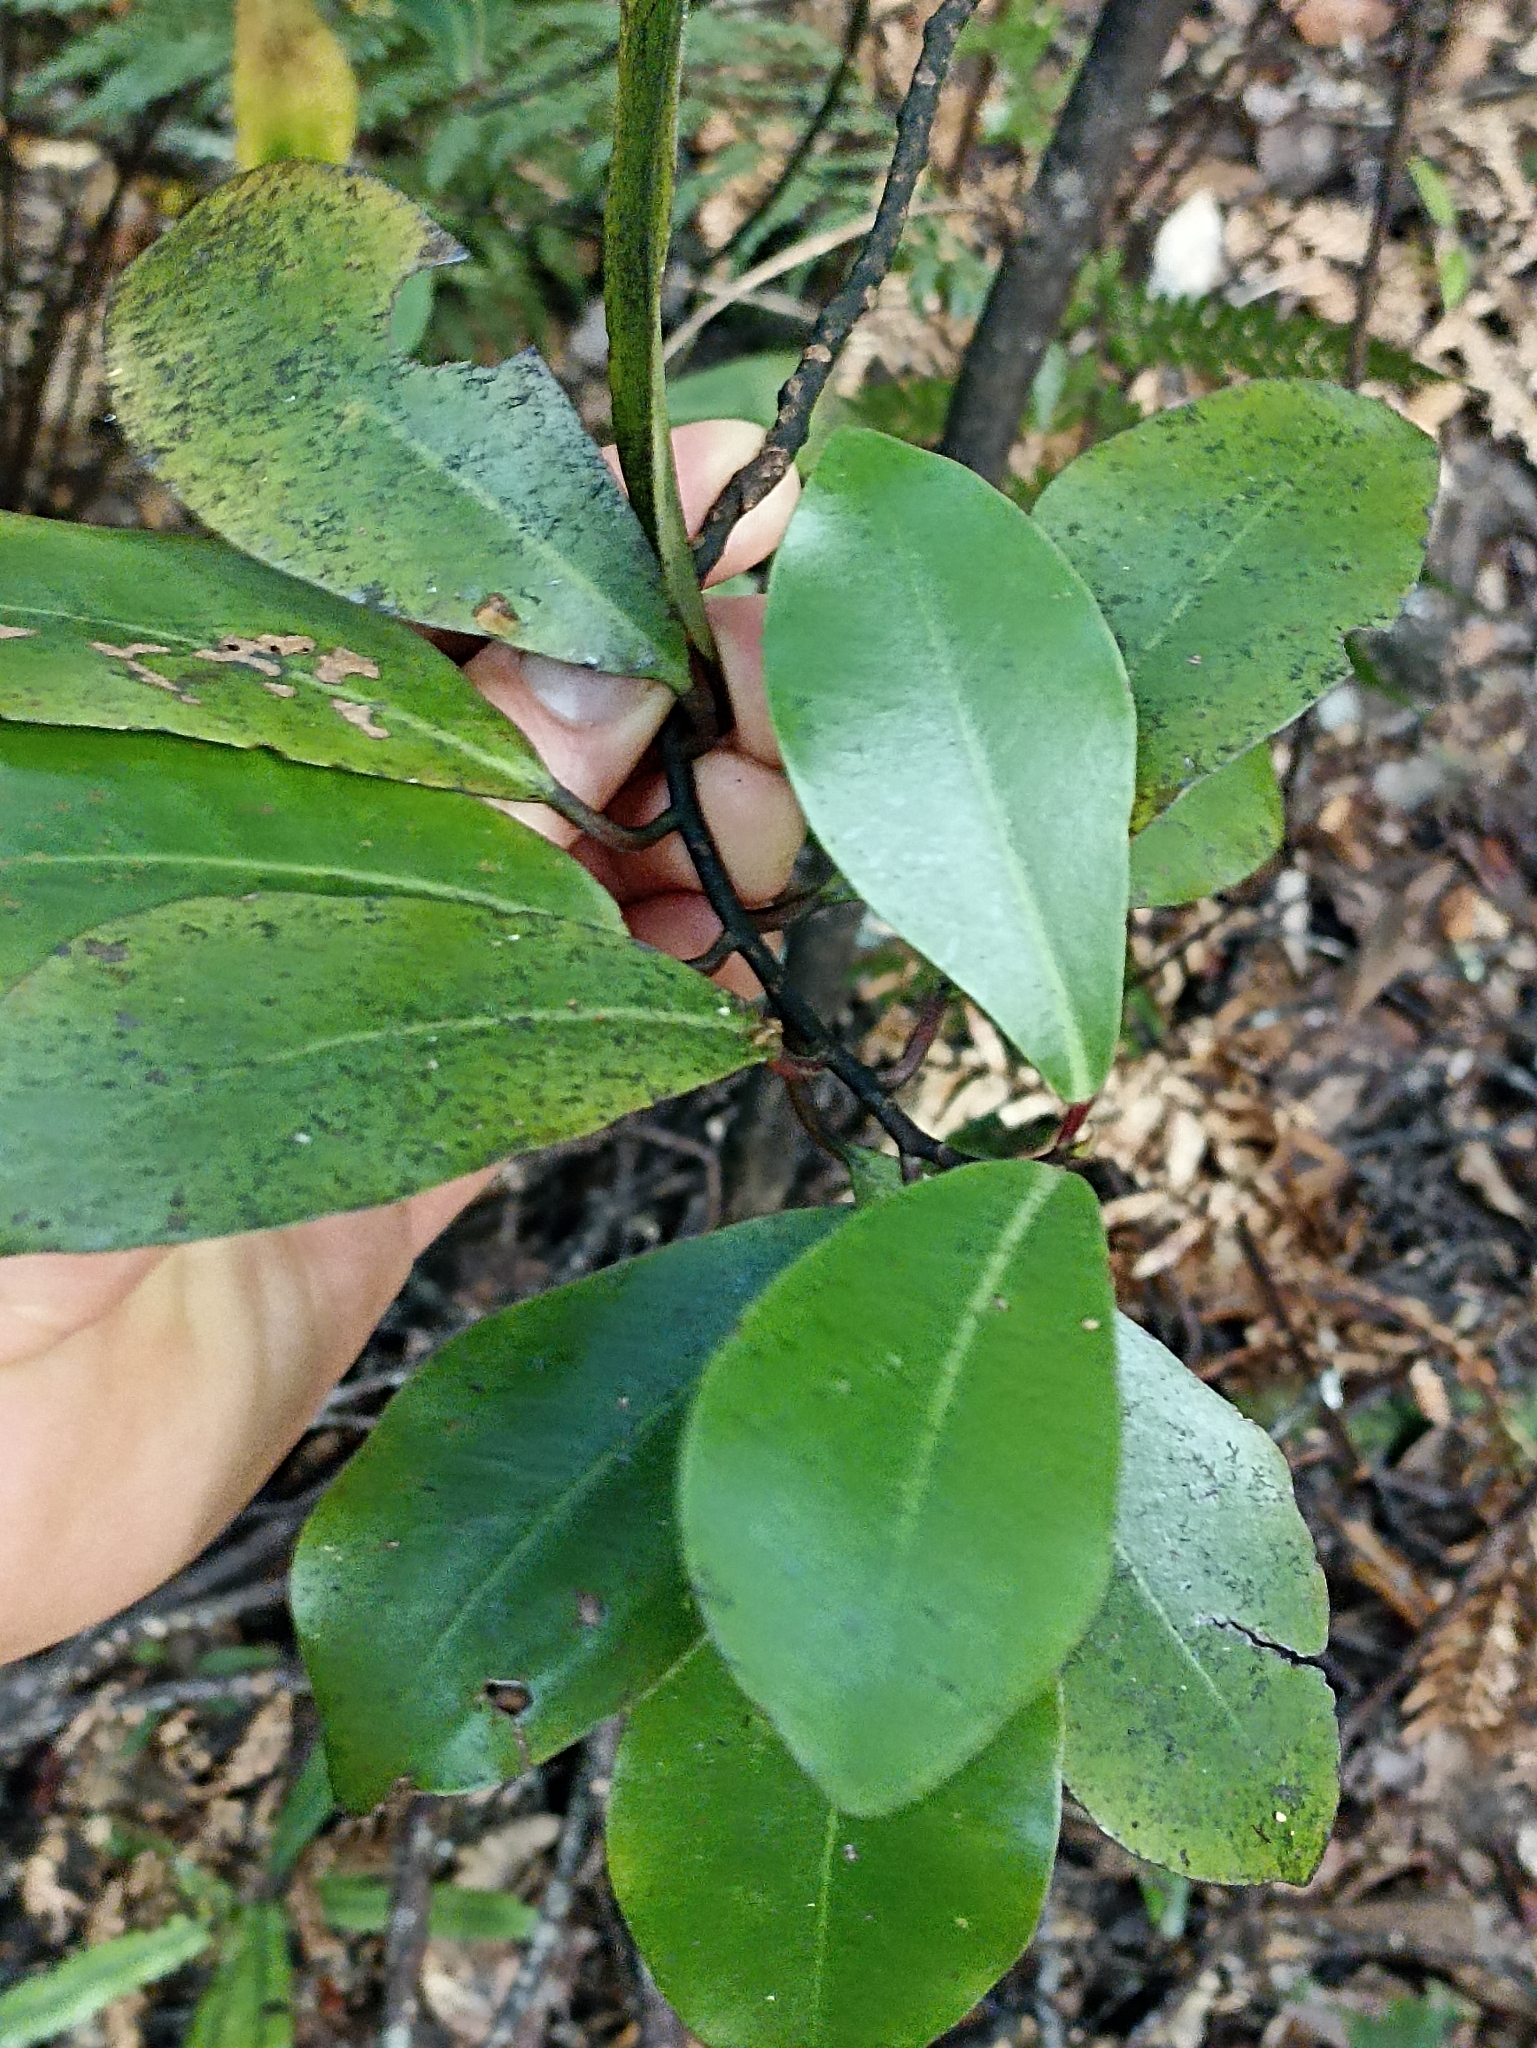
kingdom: Plantae
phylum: Tracheophyta
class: Magnoliopsida
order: Canellales
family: Winteraceae
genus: Pseudowintera
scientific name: Pseudowintera axillaris
